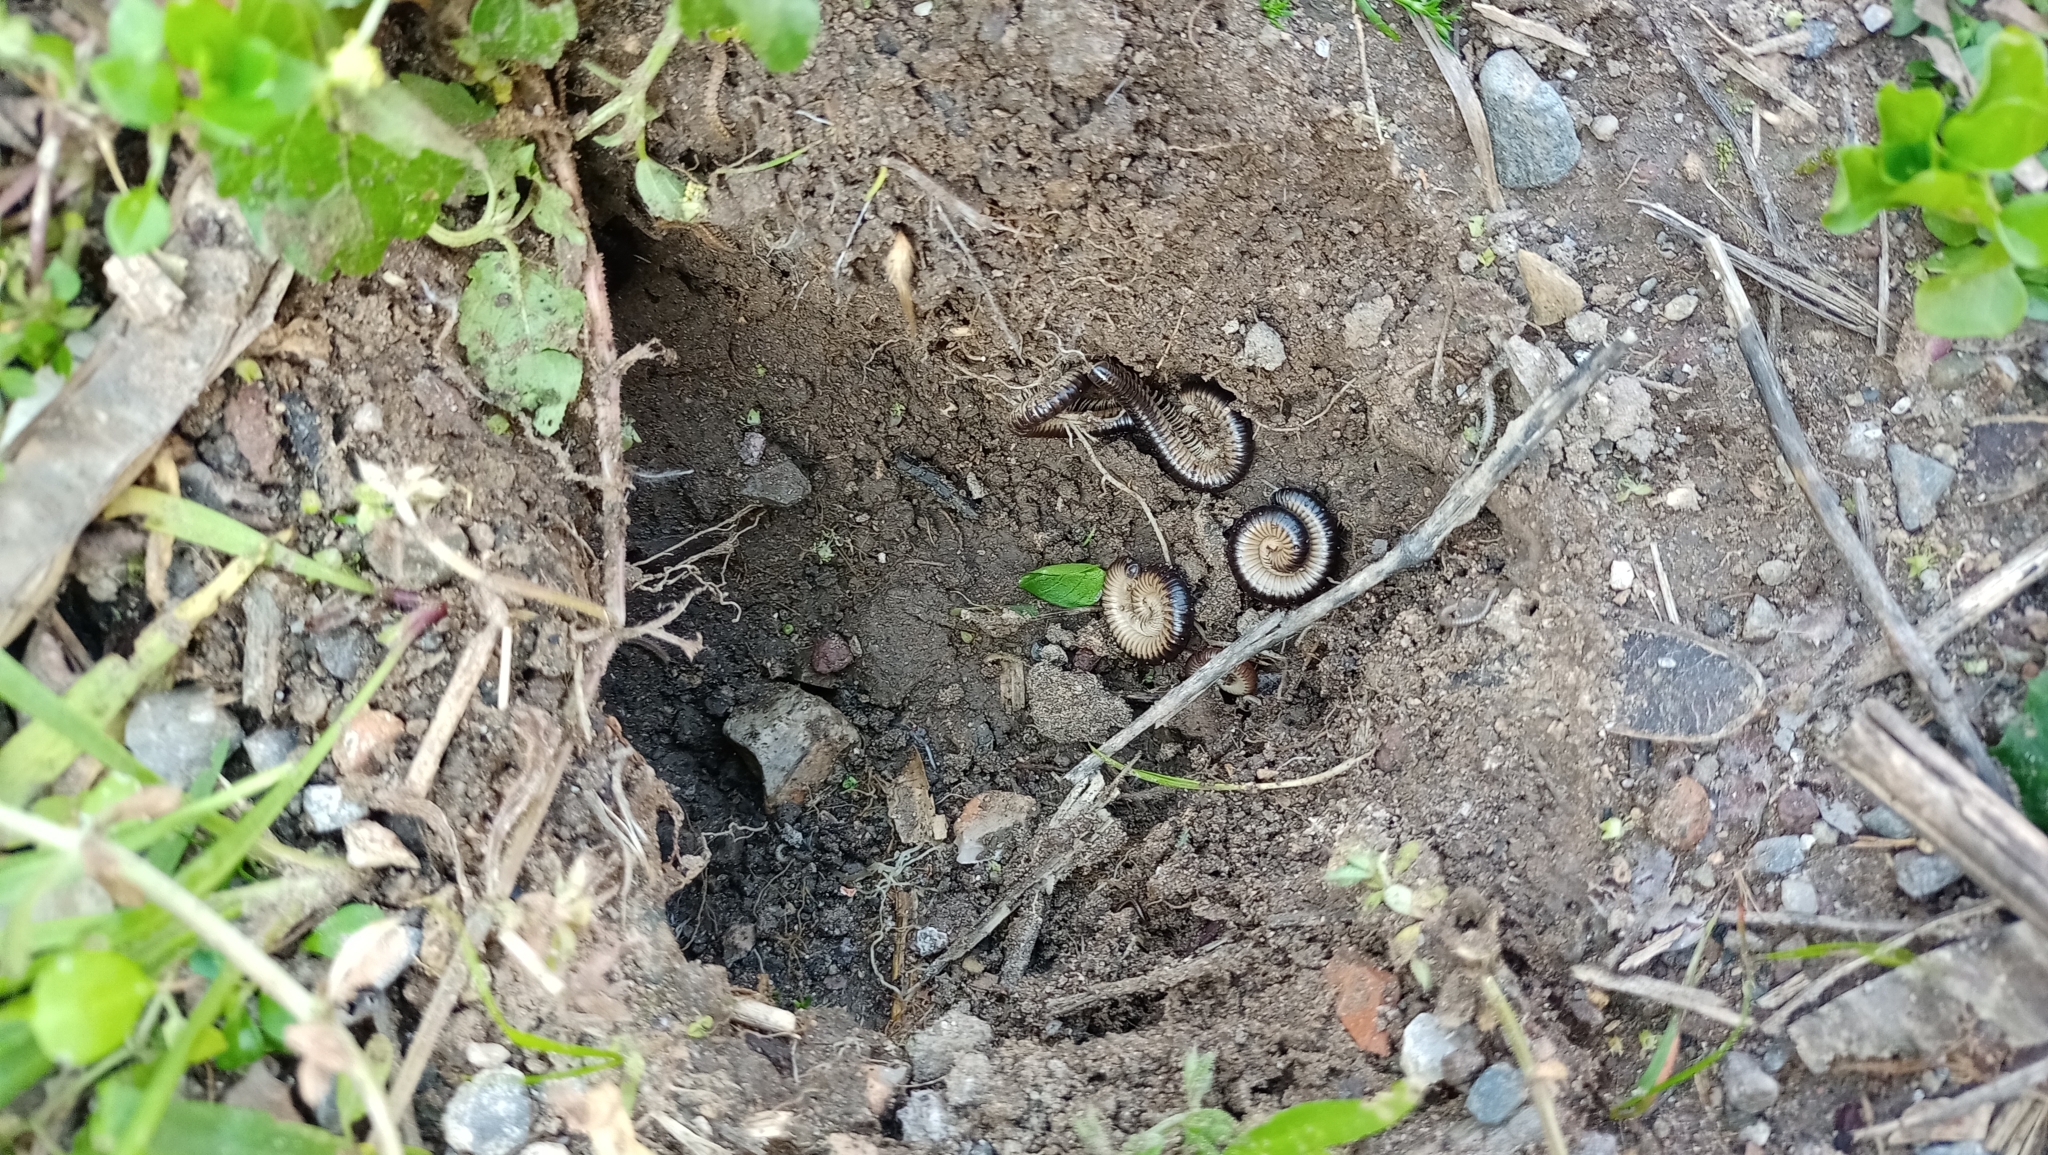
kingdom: Animalia
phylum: Arthropoda
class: Diplopoda
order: Julida
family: Julidae
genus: Pachyiulus
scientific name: Pachyiulus flavipes
